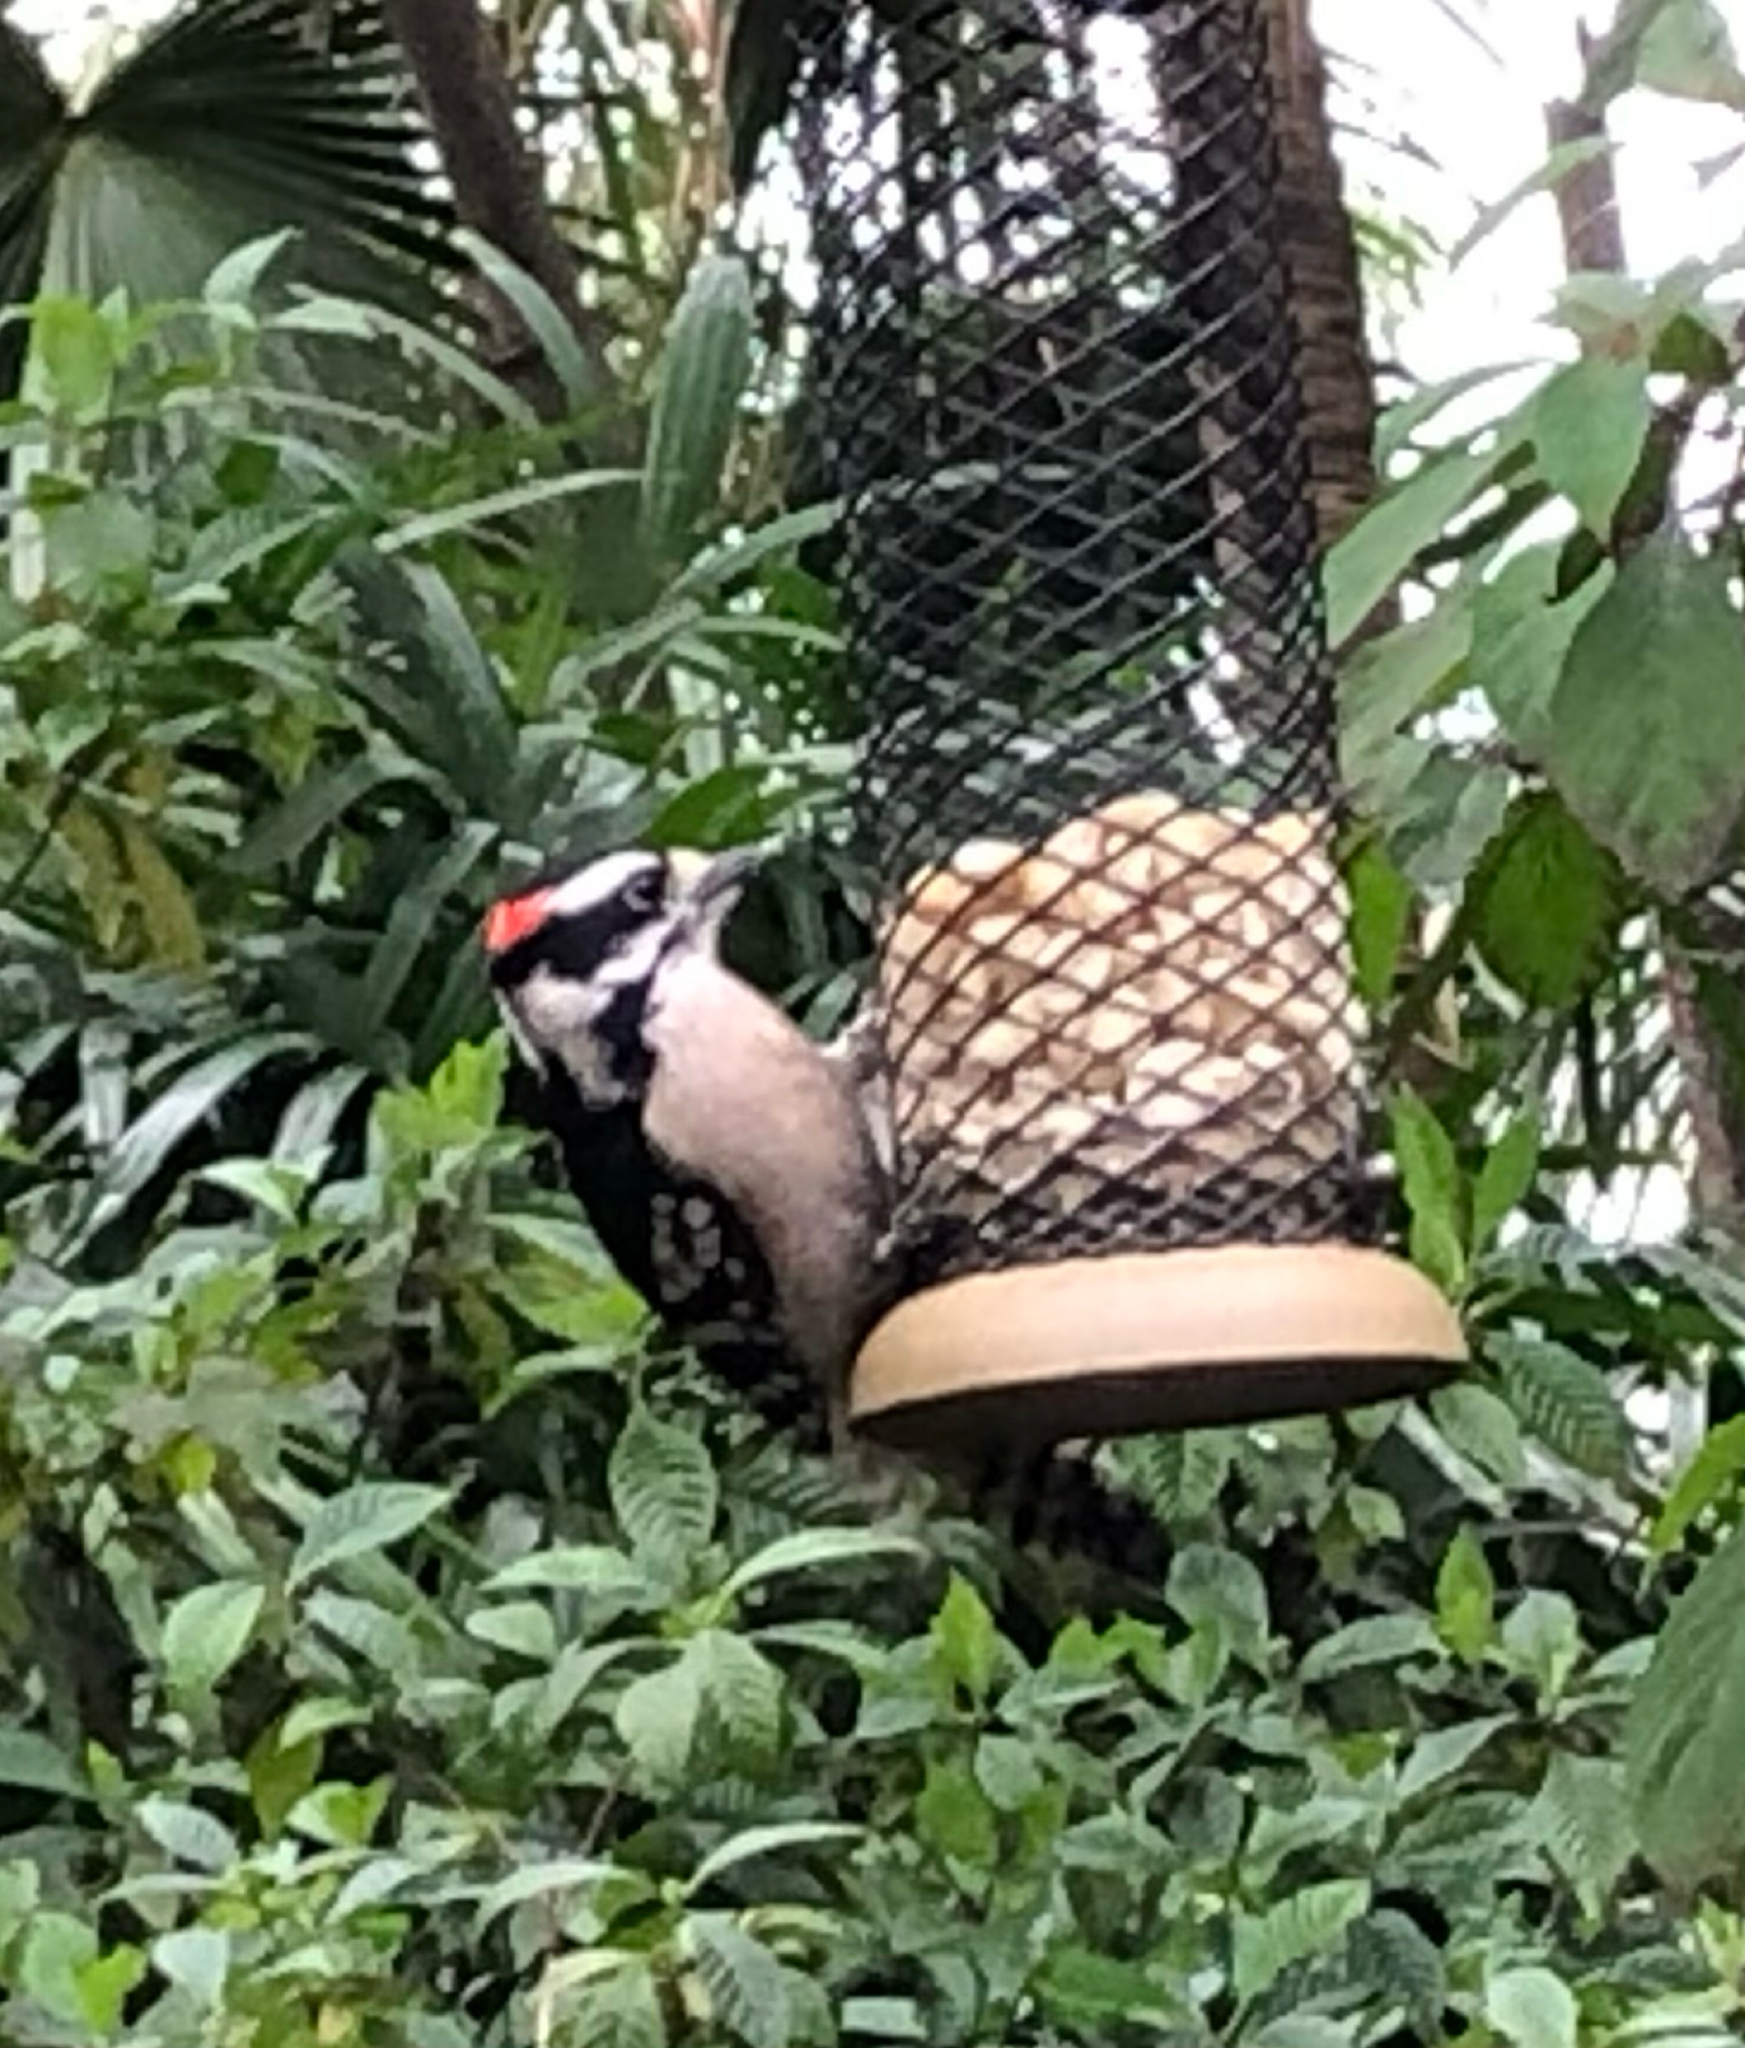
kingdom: Animalia
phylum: Chordata
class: Aves
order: Piciformes
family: Picidae
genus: Dryobates
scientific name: Dryobates pubescens
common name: Downy woodpecker
